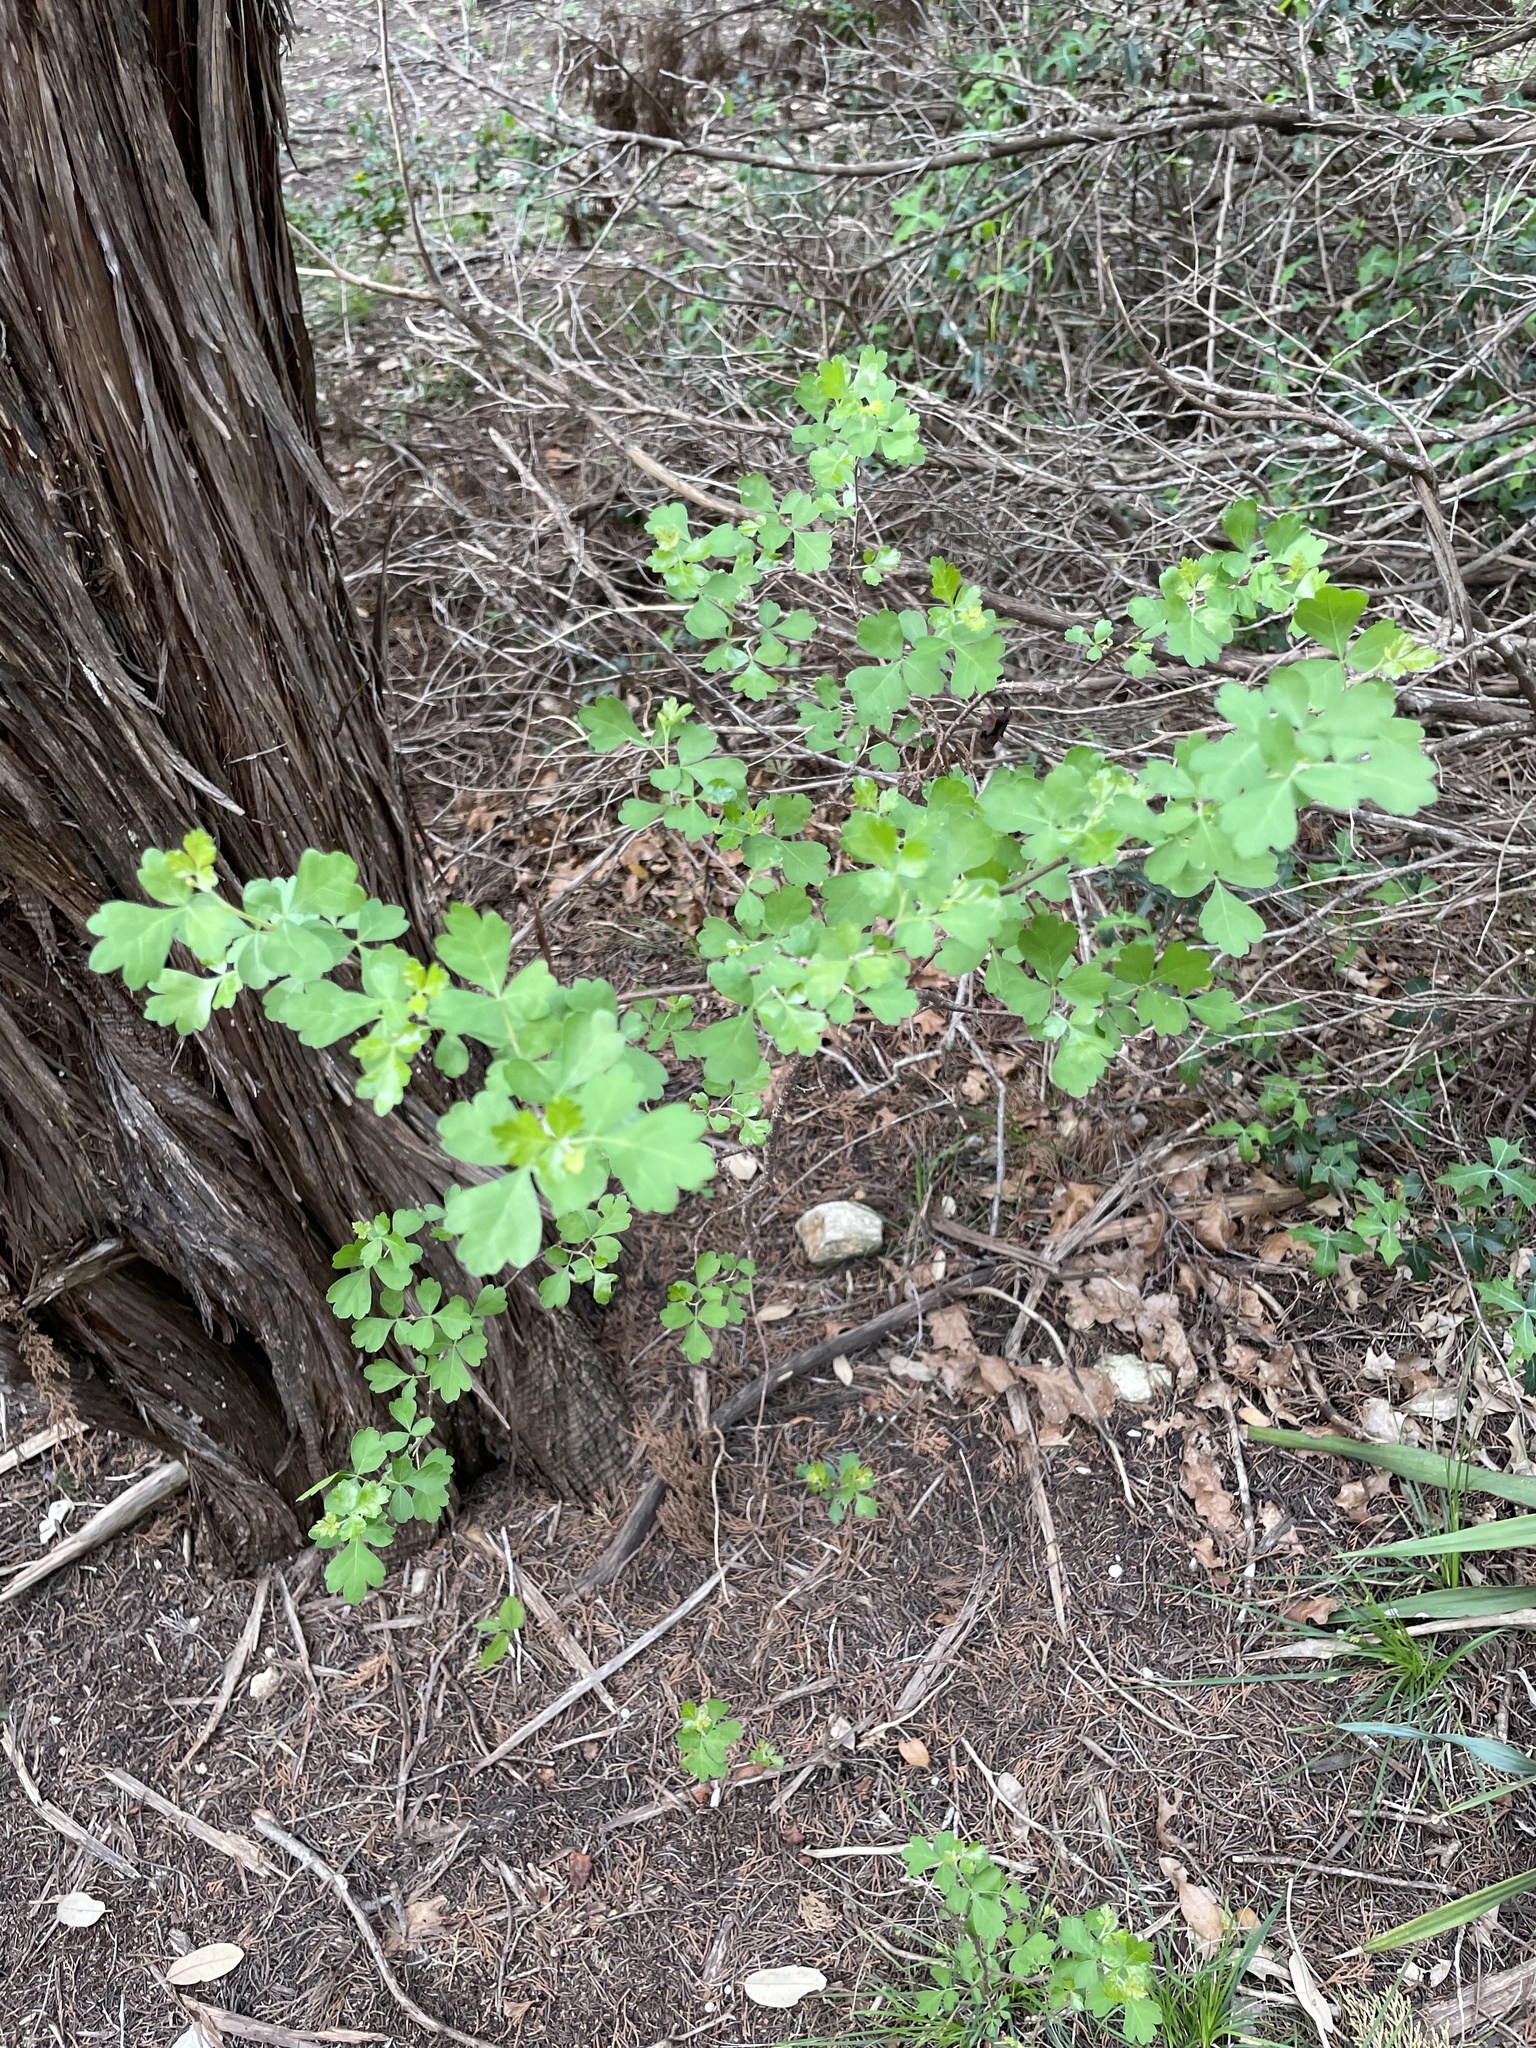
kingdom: Plantae
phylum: Tracheophyta
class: Magnoliopsida
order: Sapindales
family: Anacardiaceae
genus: Rhus
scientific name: Rhus aromatica
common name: Aromatic sumac
